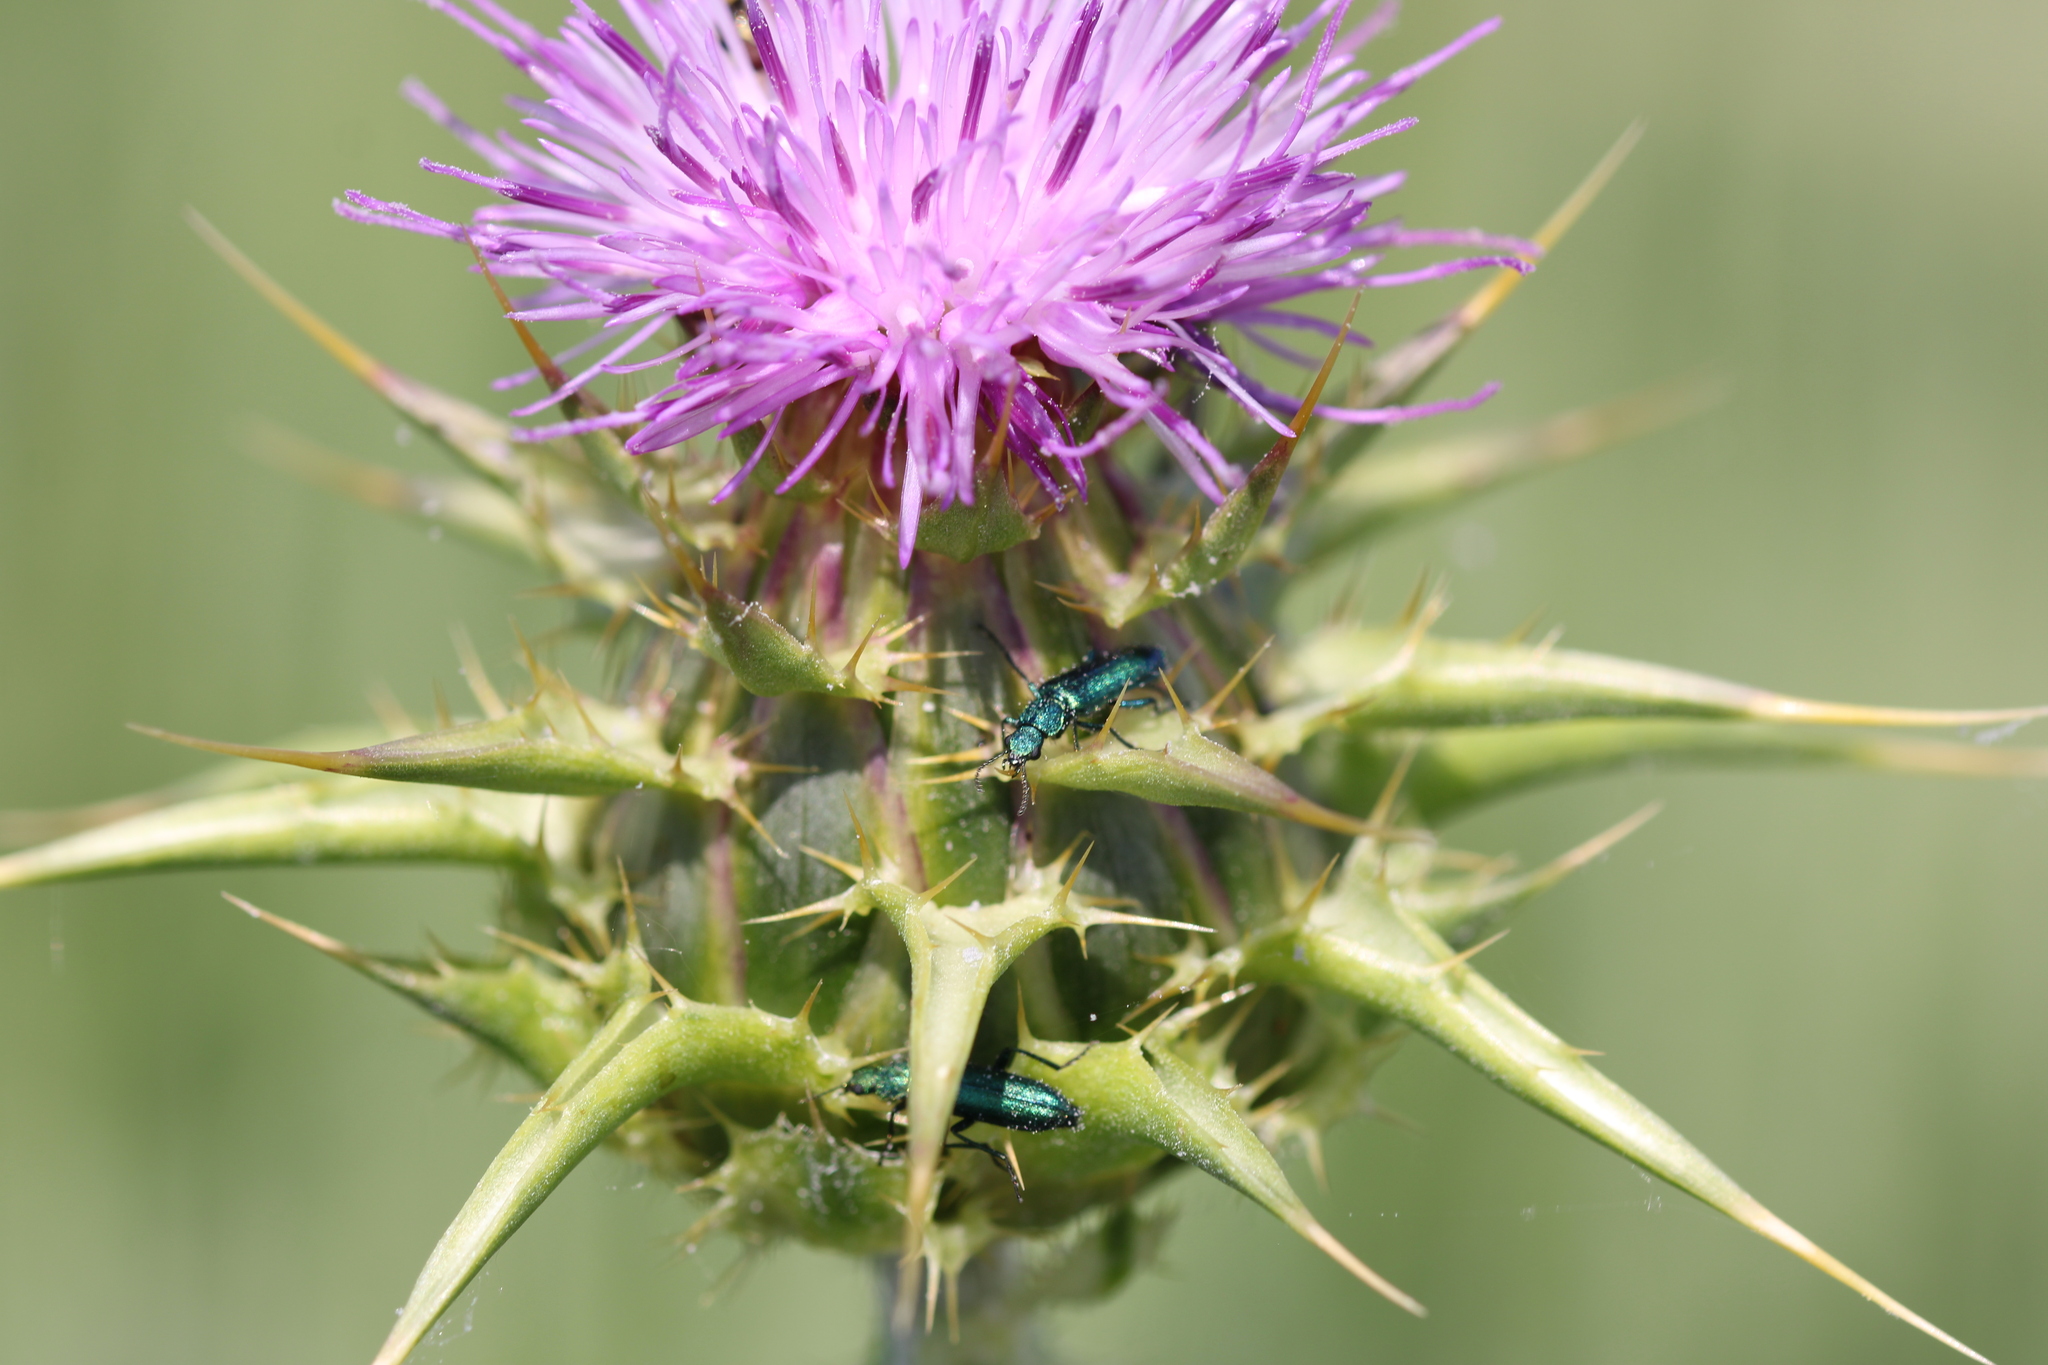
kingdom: Animalia
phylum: Arthropoda
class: Insecta
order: Coleoptera
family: Dasytidae
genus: Psilothrix
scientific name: Psilothrix viridicoerulea
